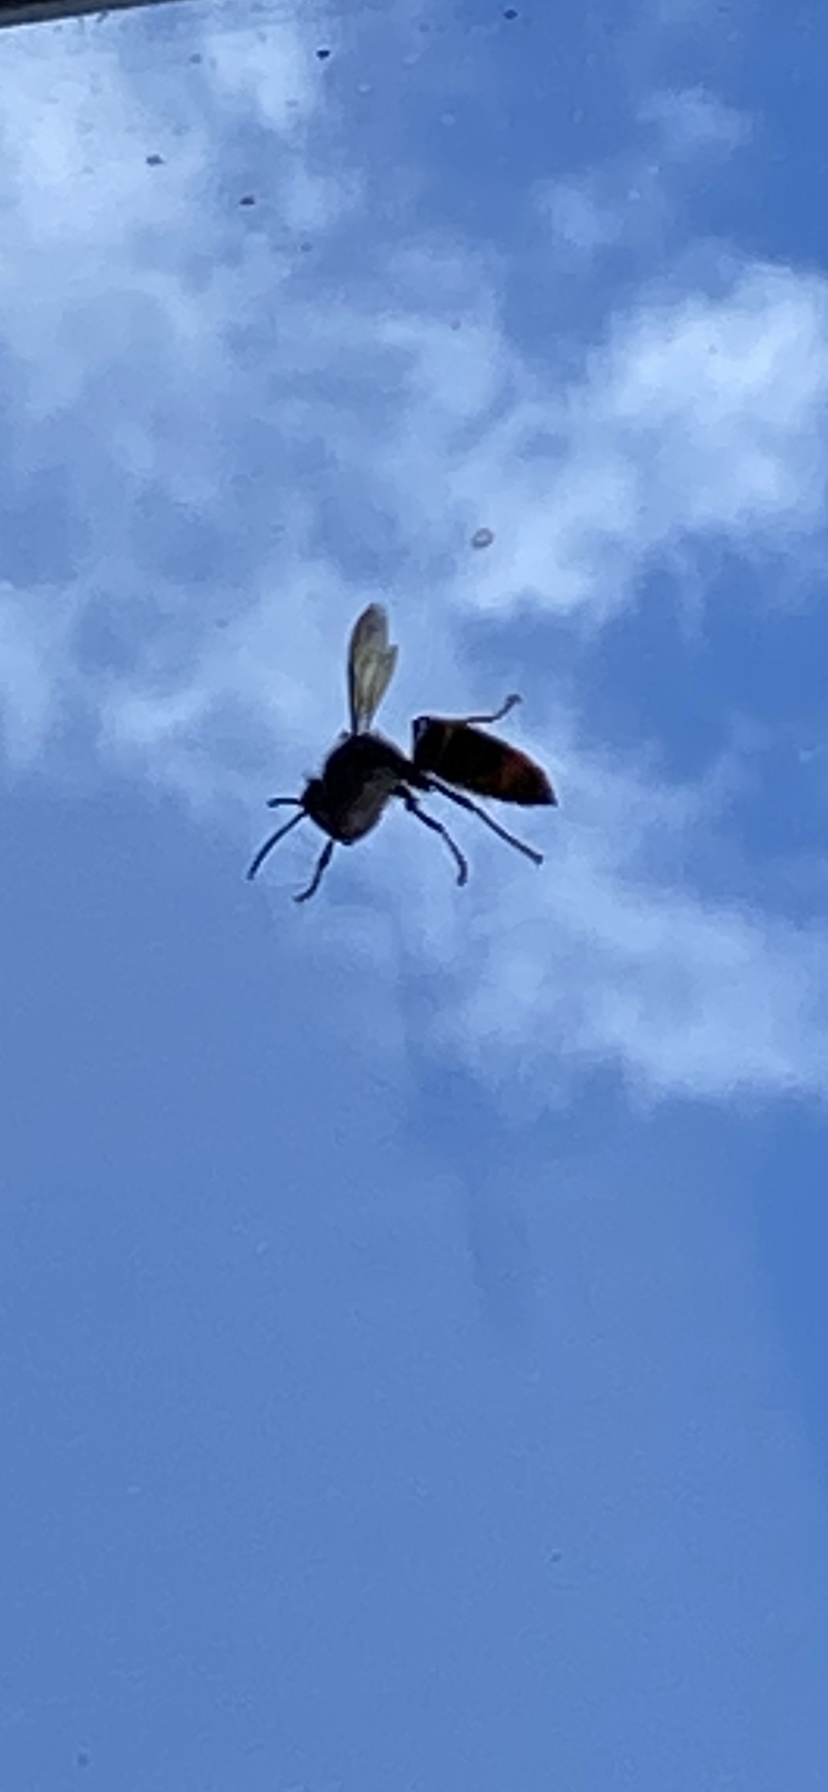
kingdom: Animalia
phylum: Arthropoda
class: Insecta
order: Hymenoptera
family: Vespidae
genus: Vespa
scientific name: Vespa velutina
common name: Asian hornet
